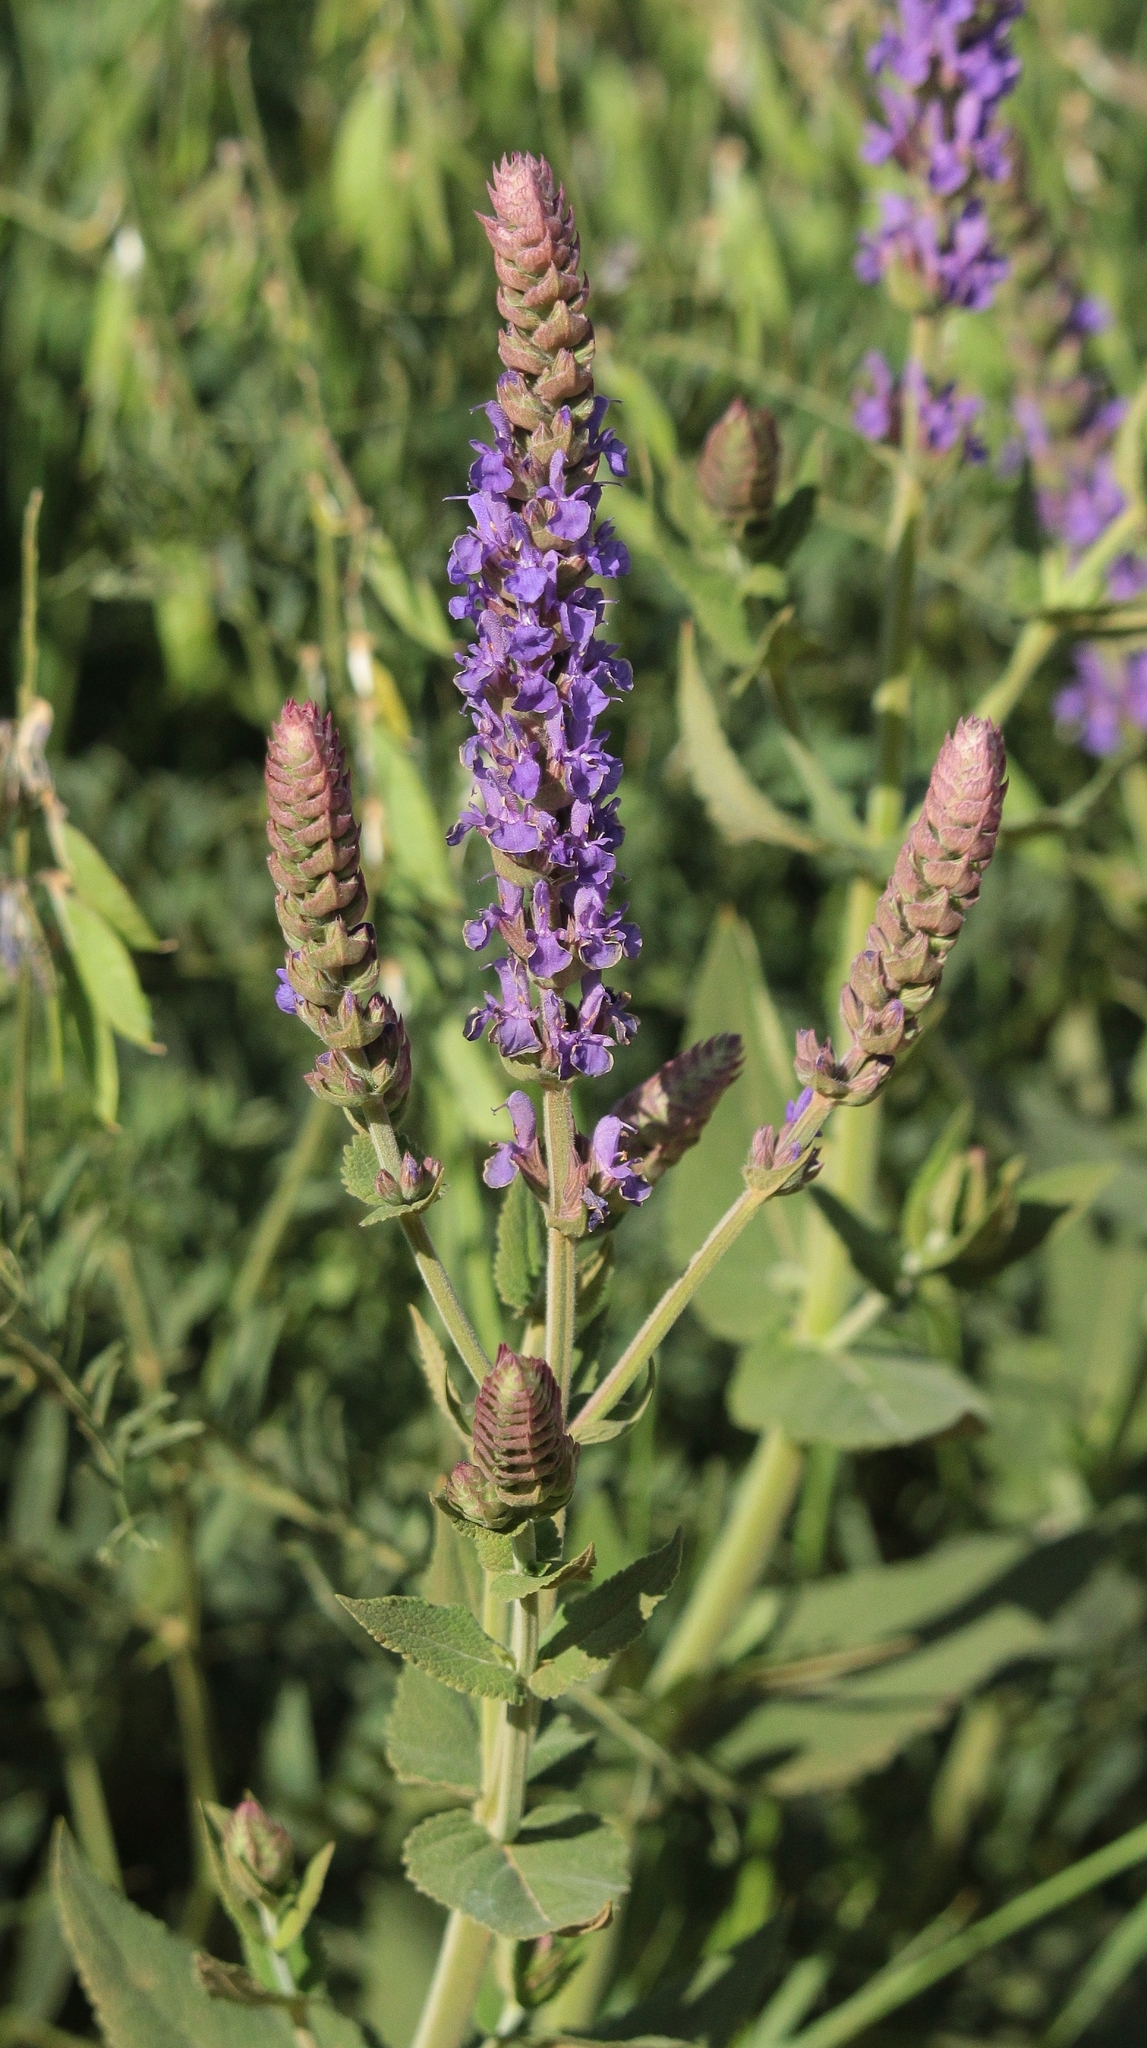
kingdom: Plantae
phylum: Tracheophyta
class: Magnoliopsida
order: Lamiales
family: Lamiaceae
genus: Salvia
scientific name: Salvia nemorosa
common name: Balkan clary
